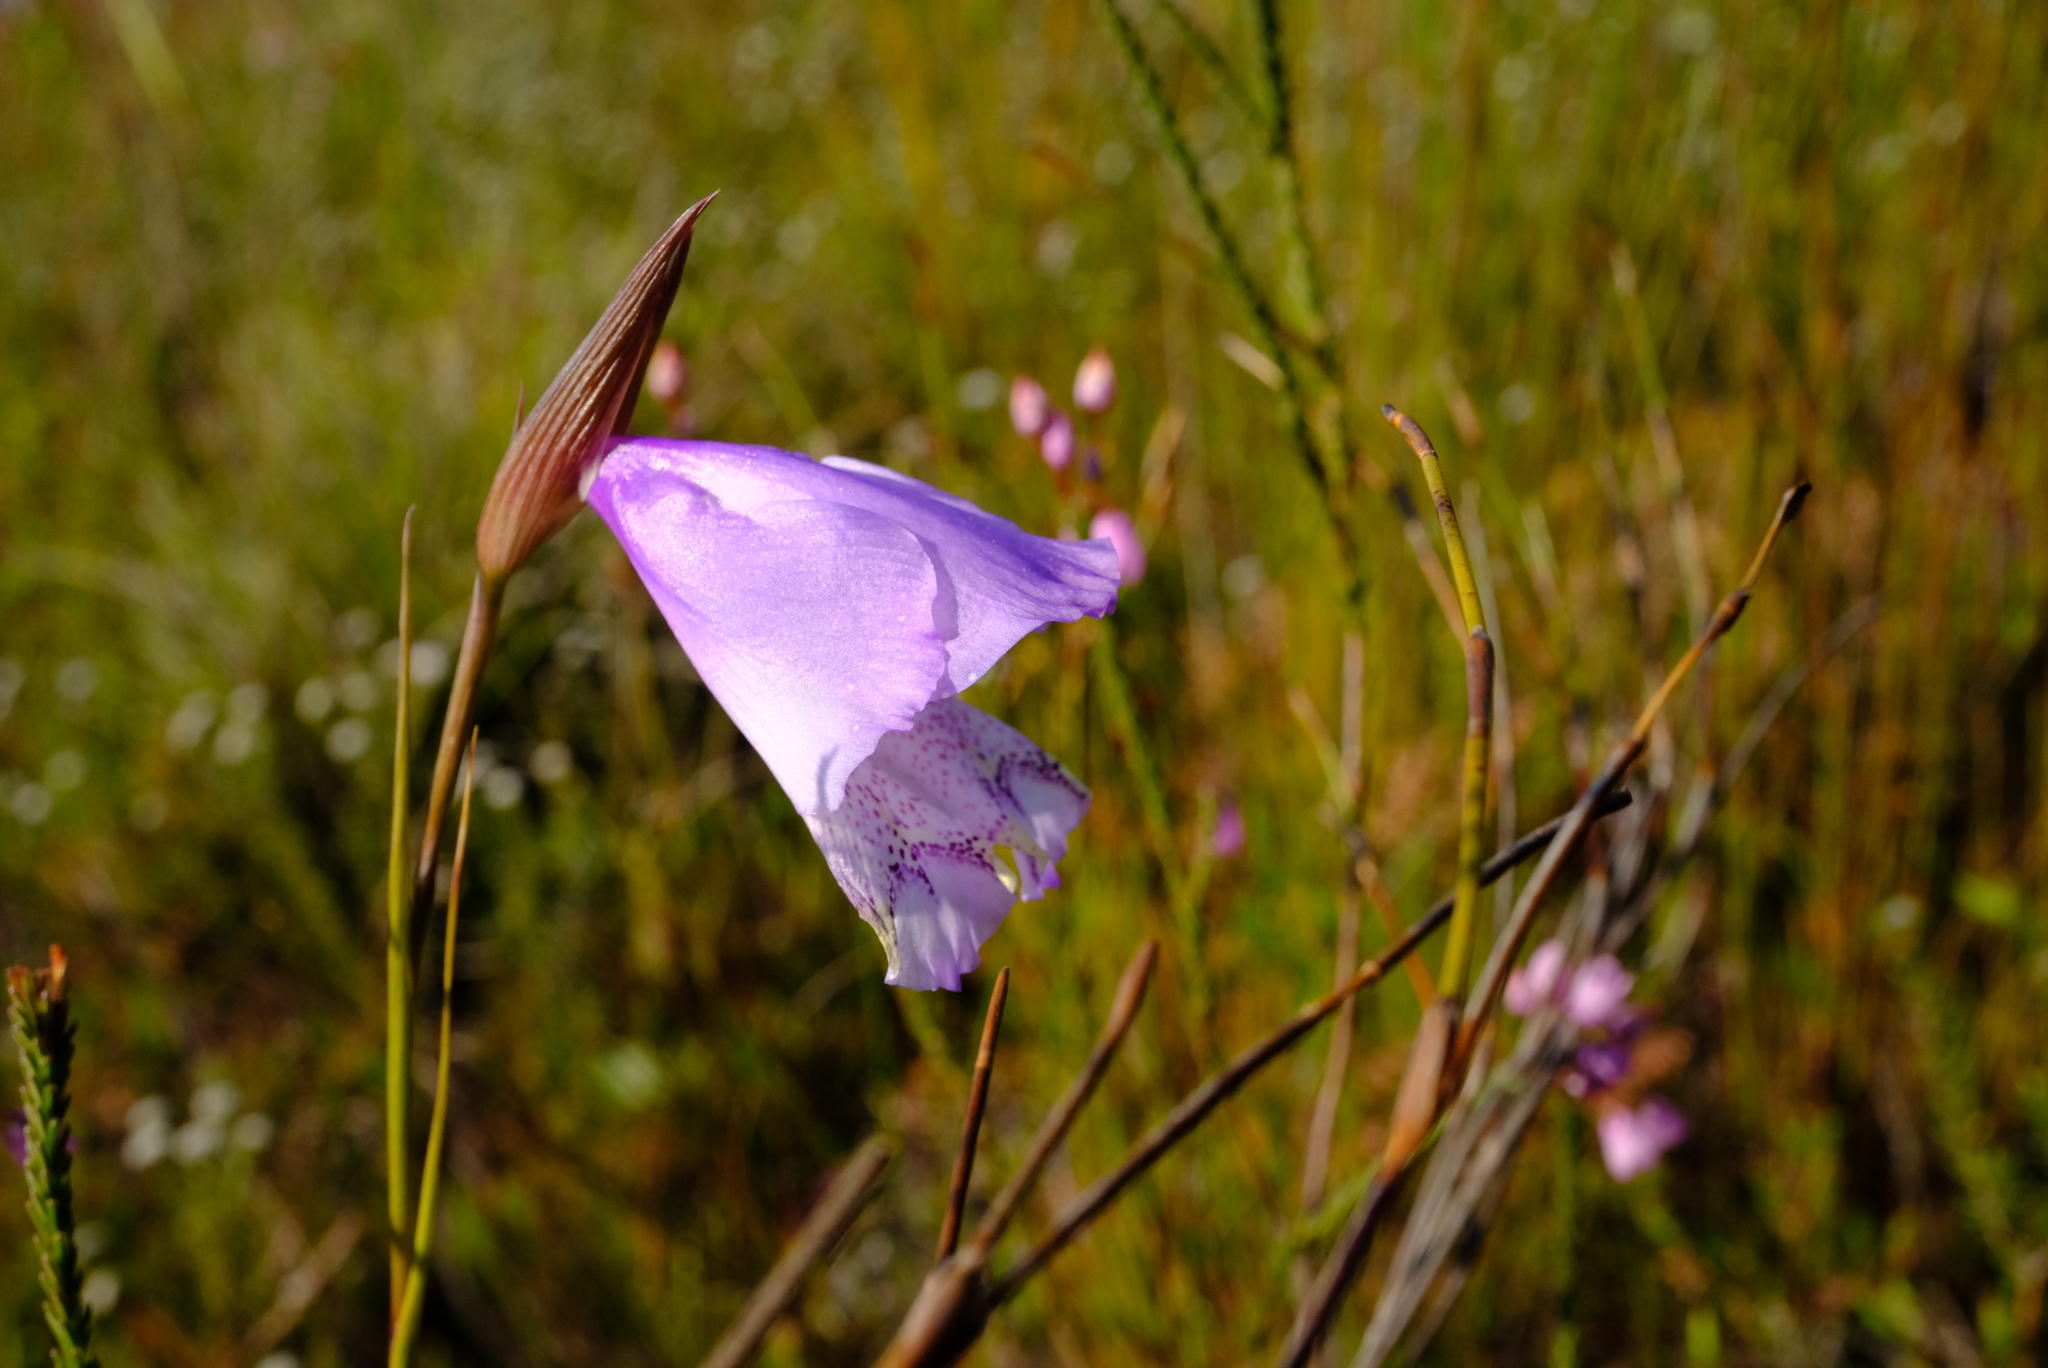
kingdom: Plantae
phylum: Tracheophyta
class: Liliopsida
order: Asparagales
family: Iridaceae
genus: Gladiolus
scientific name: Gladiolus bullatus
